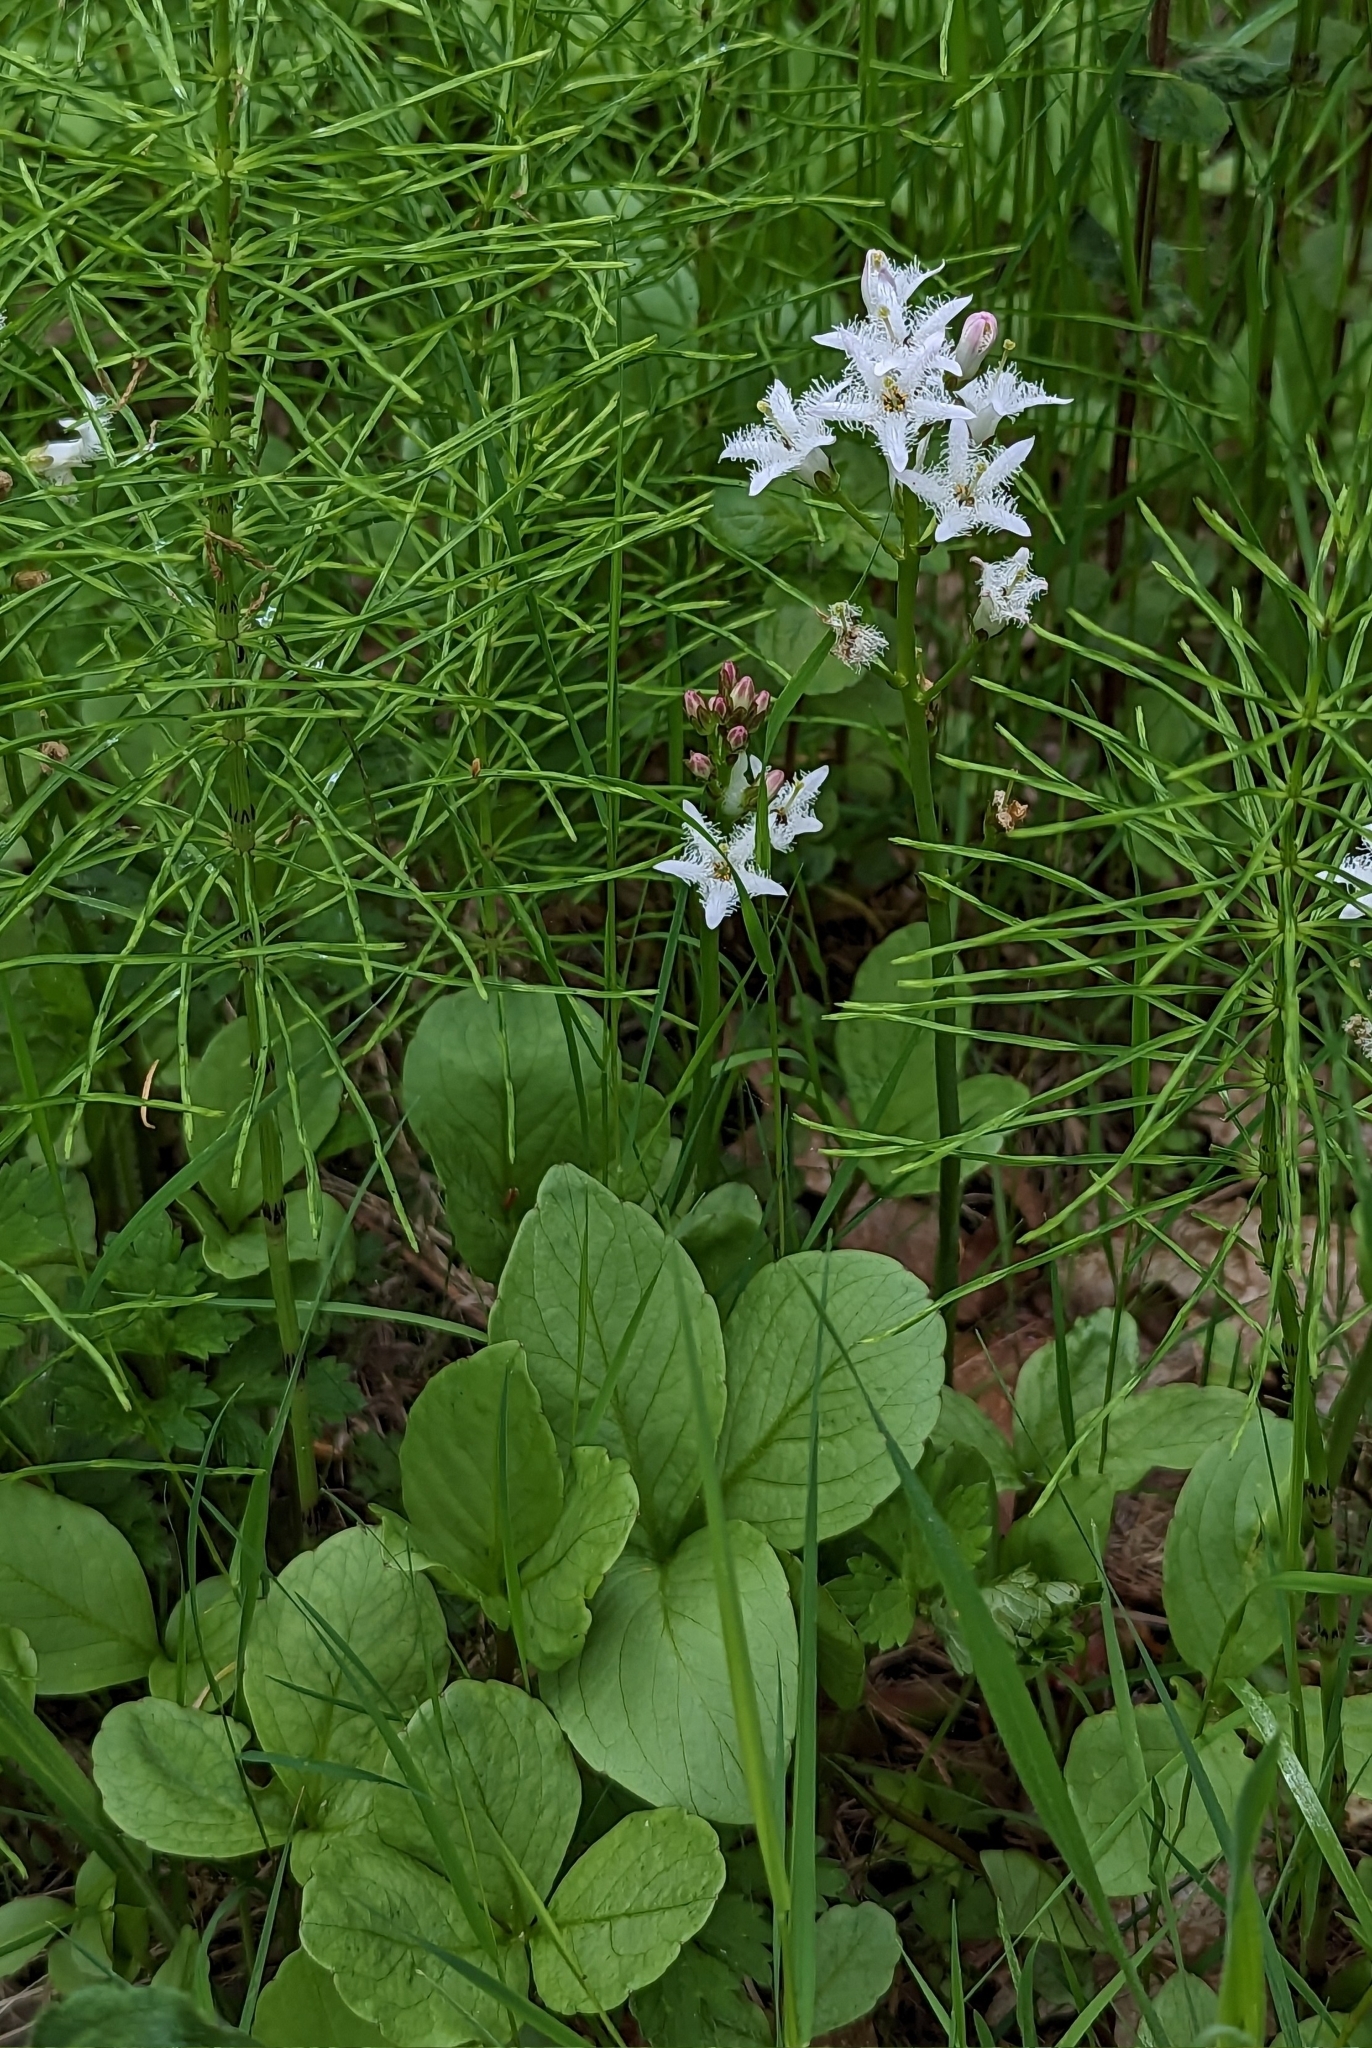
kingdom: Plantae
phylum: Tracheophyta
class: Magnoliopsida
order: Asterales
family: Menyanthaceae
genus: Menyanthes
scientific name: Menyanthes trifoliata
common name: Bogbean
